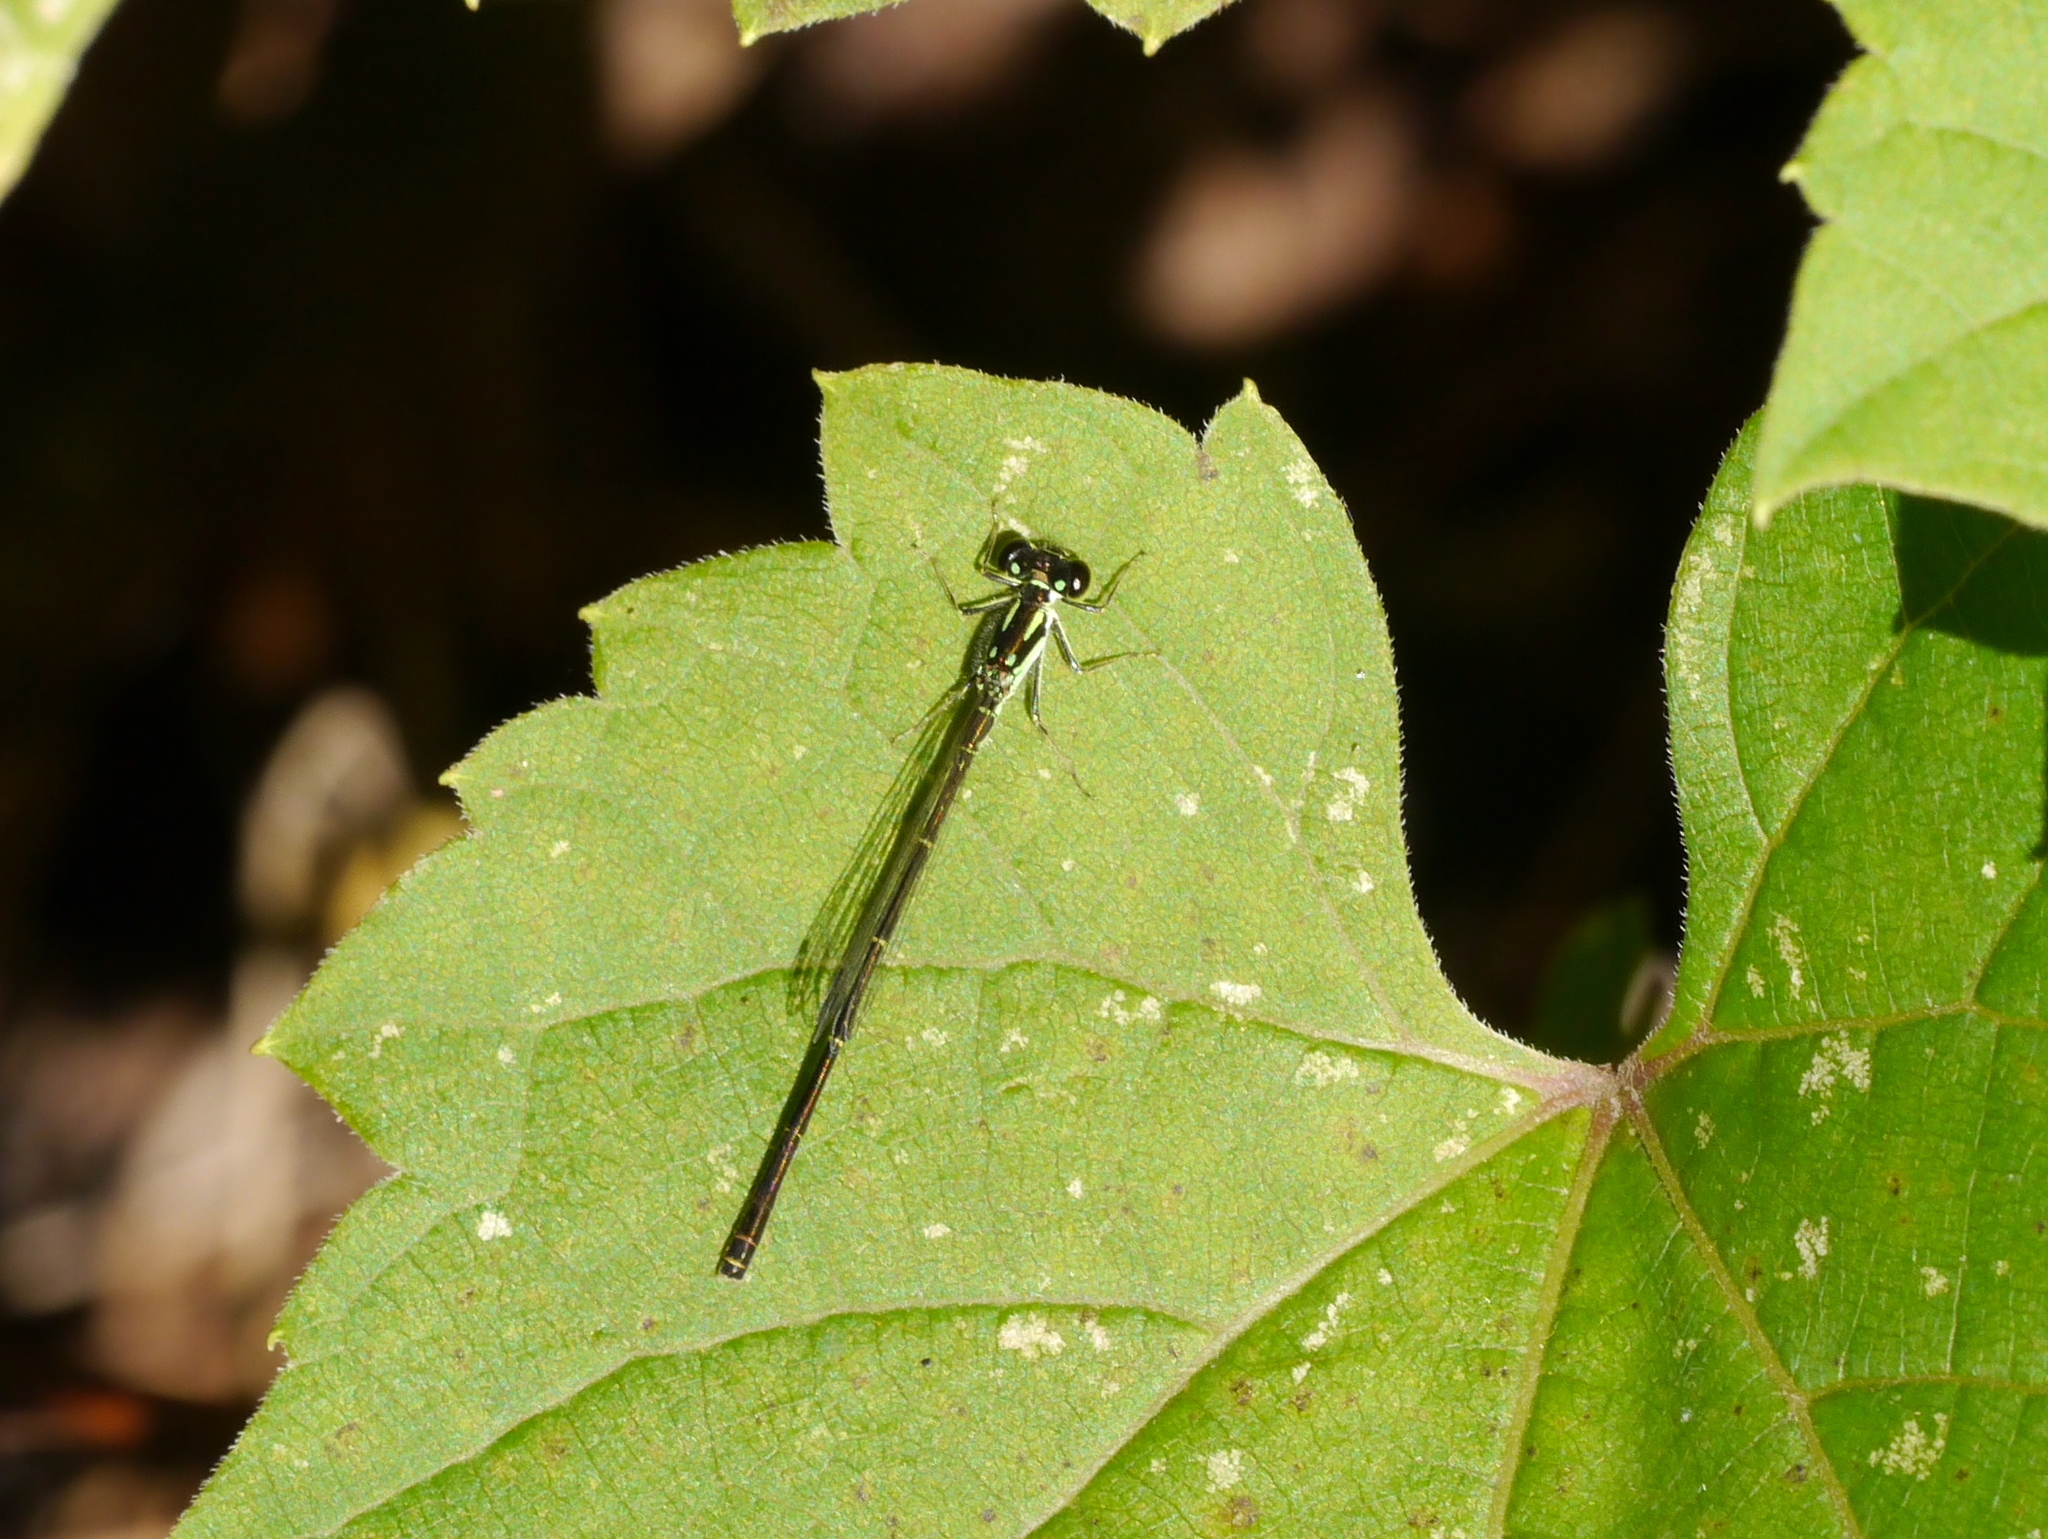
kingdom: Animalia
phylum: Arthropoda
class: Insecta
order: Odonata
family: Coenagrionidae
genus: Ischnura
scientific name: Ischnura posita
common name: Fragile forktail
